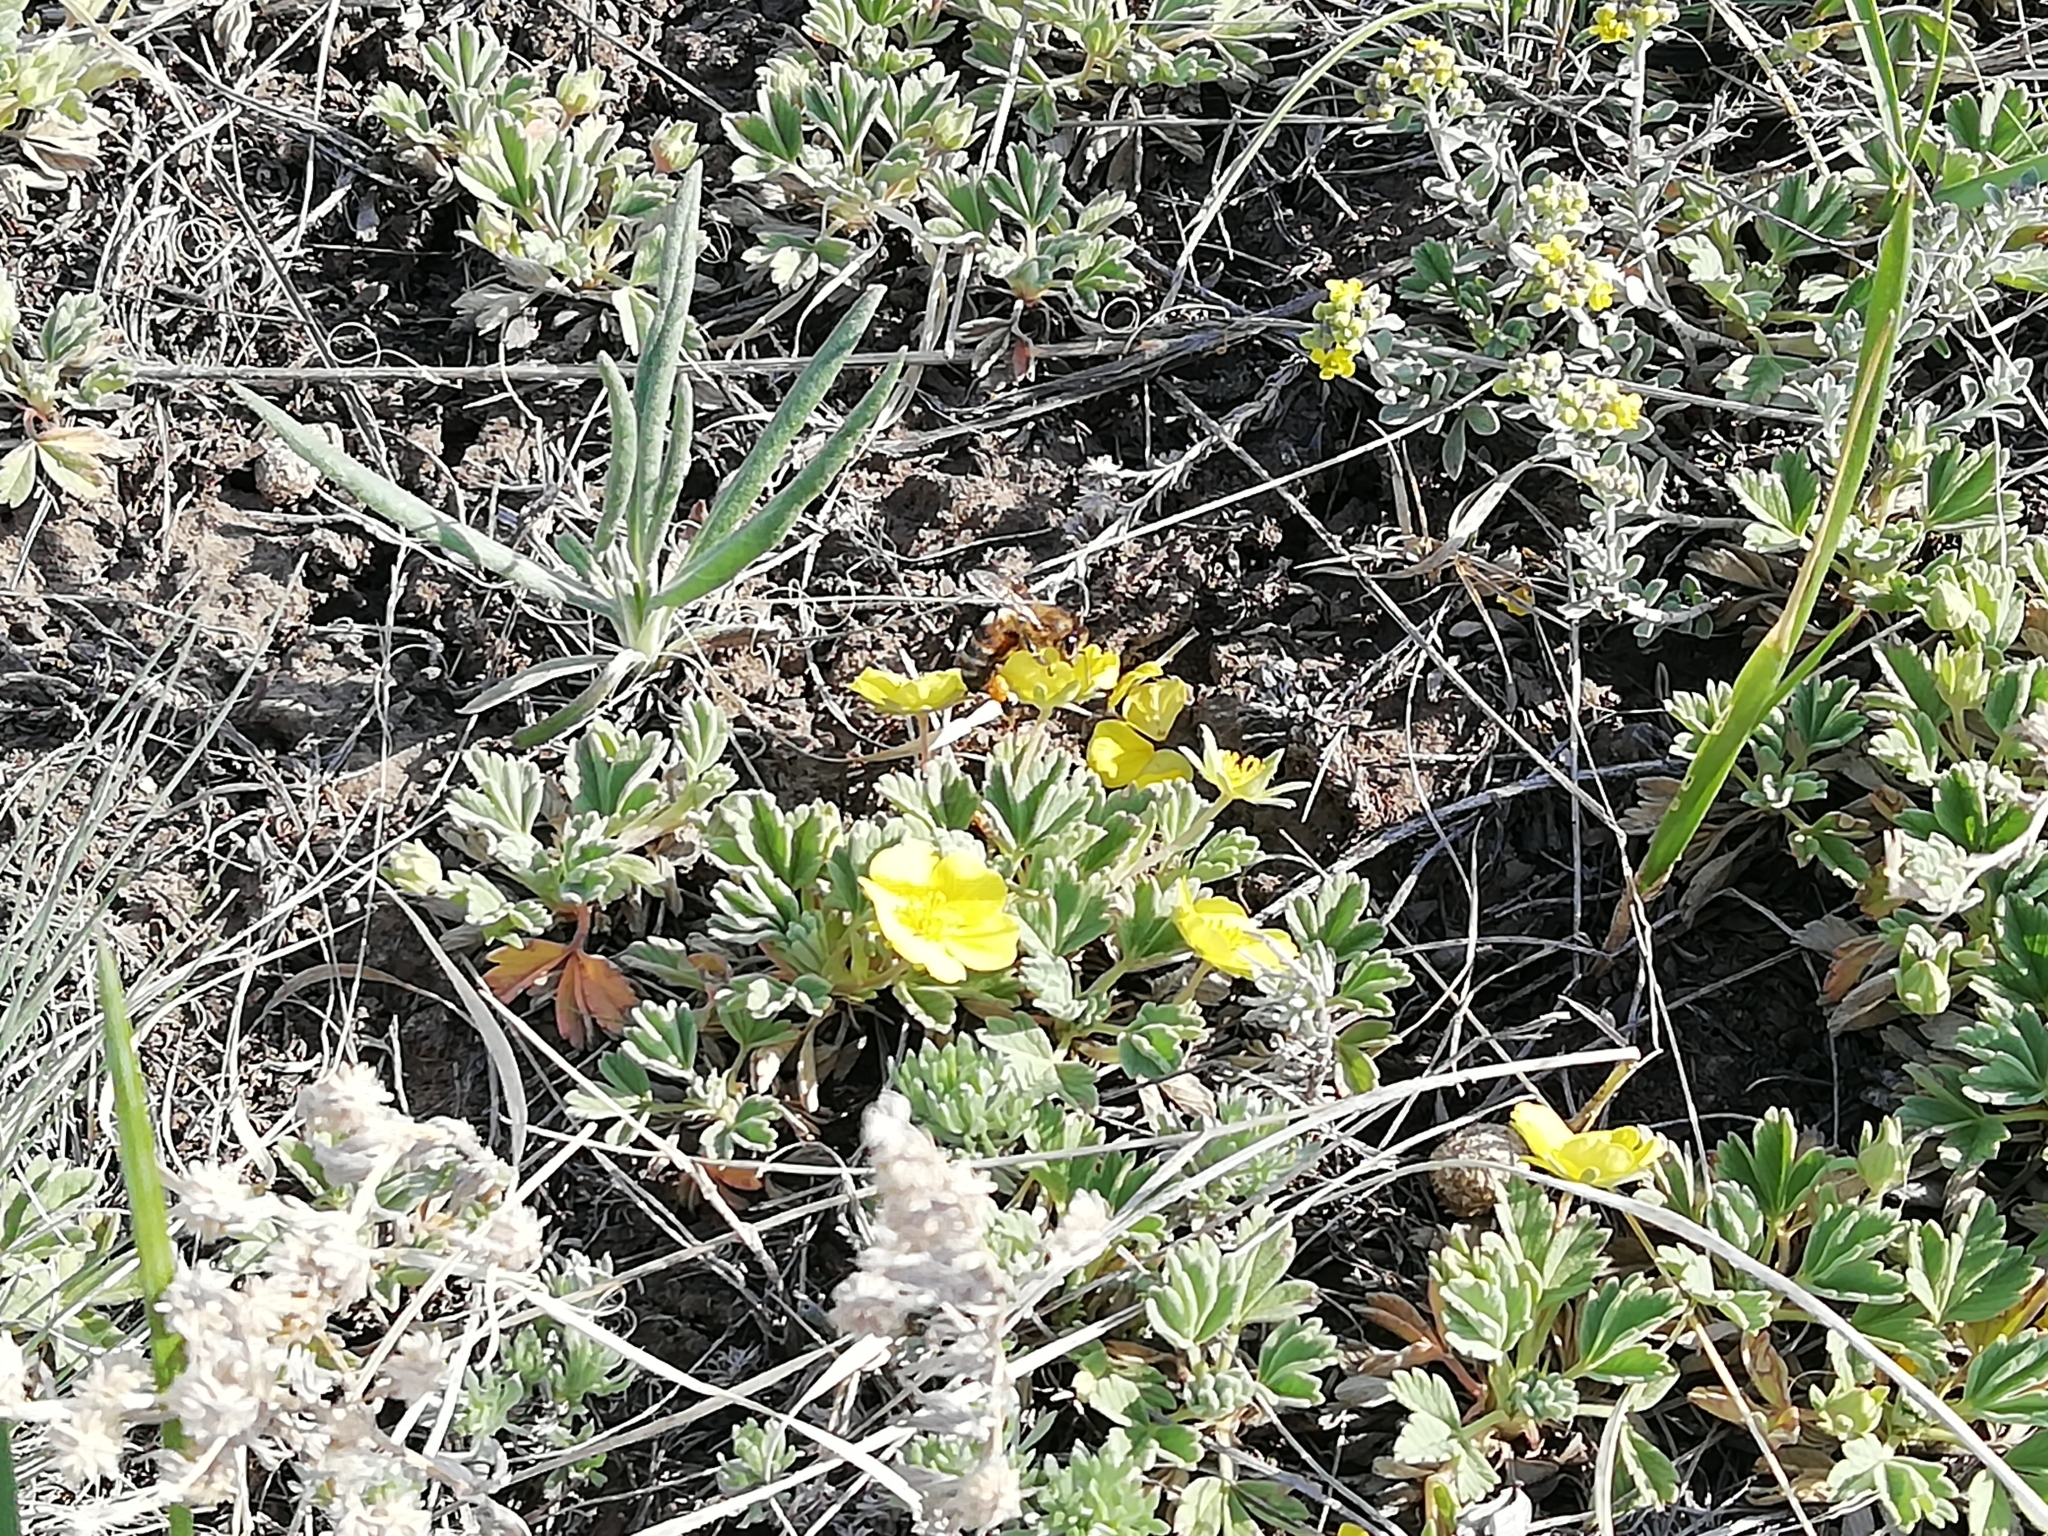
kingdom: Animalia
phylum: Arthropoda
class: Insecta
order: Hymenoptera
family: Apidae
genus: Apis
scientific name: Apis mellifera
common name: Honey bee
